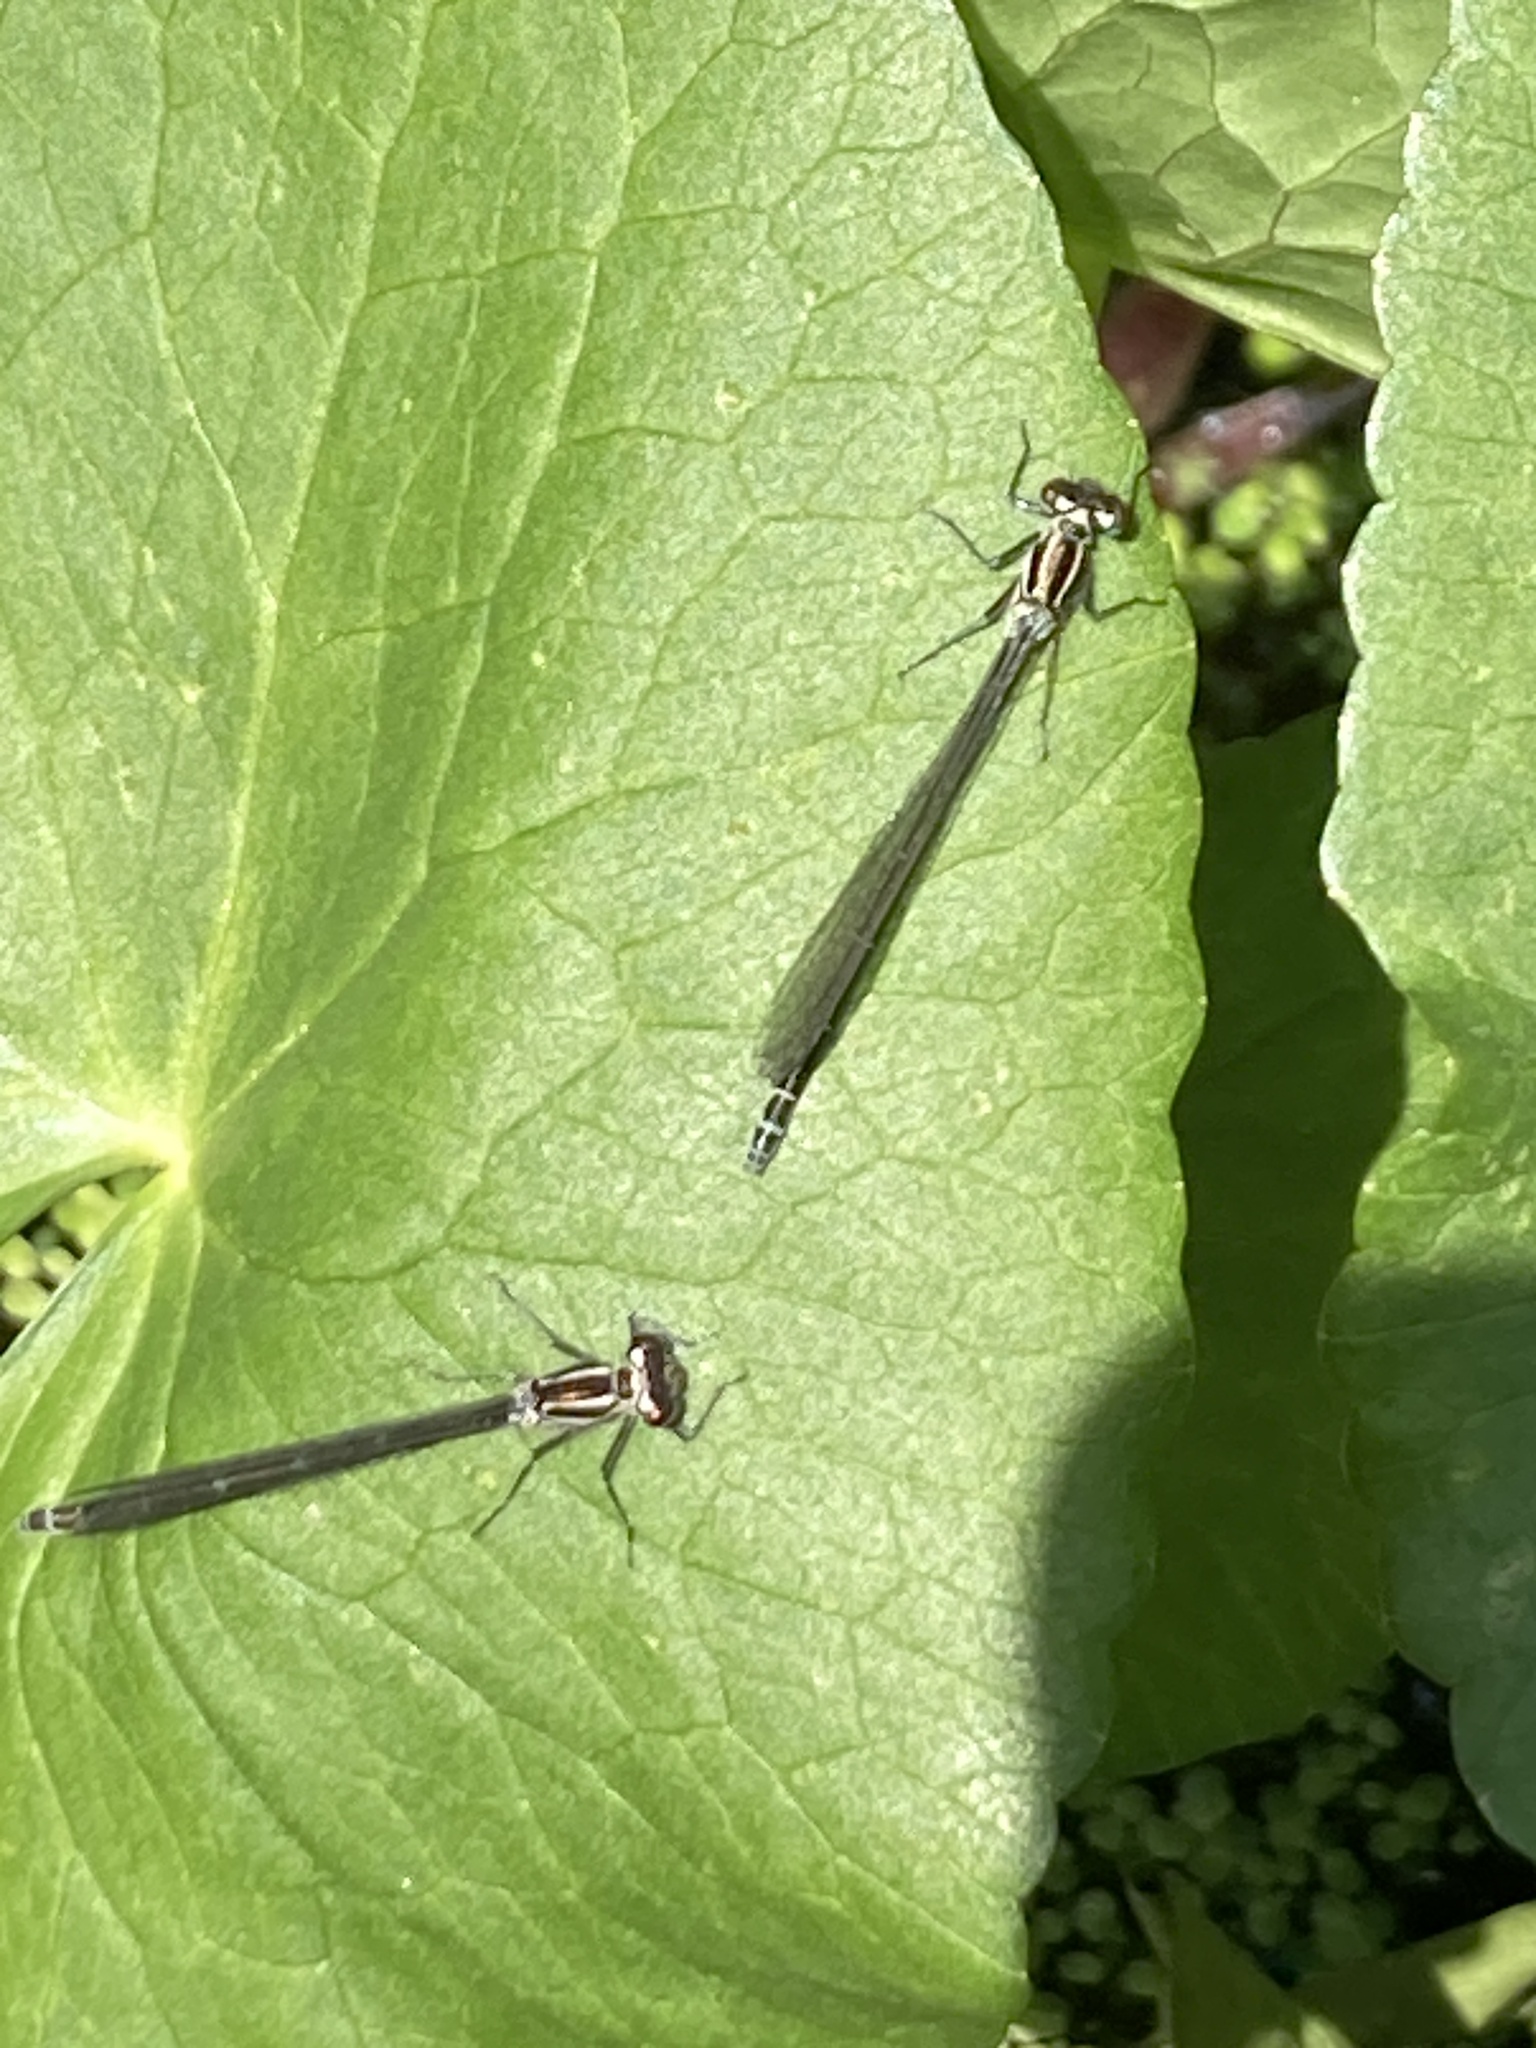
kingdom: Animalia
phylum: Arthropoda
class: Insecta
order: Odonata
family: Coenagrionidae
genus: Coenagrion
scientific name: Coenagrion puella
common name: Azure damselfly
